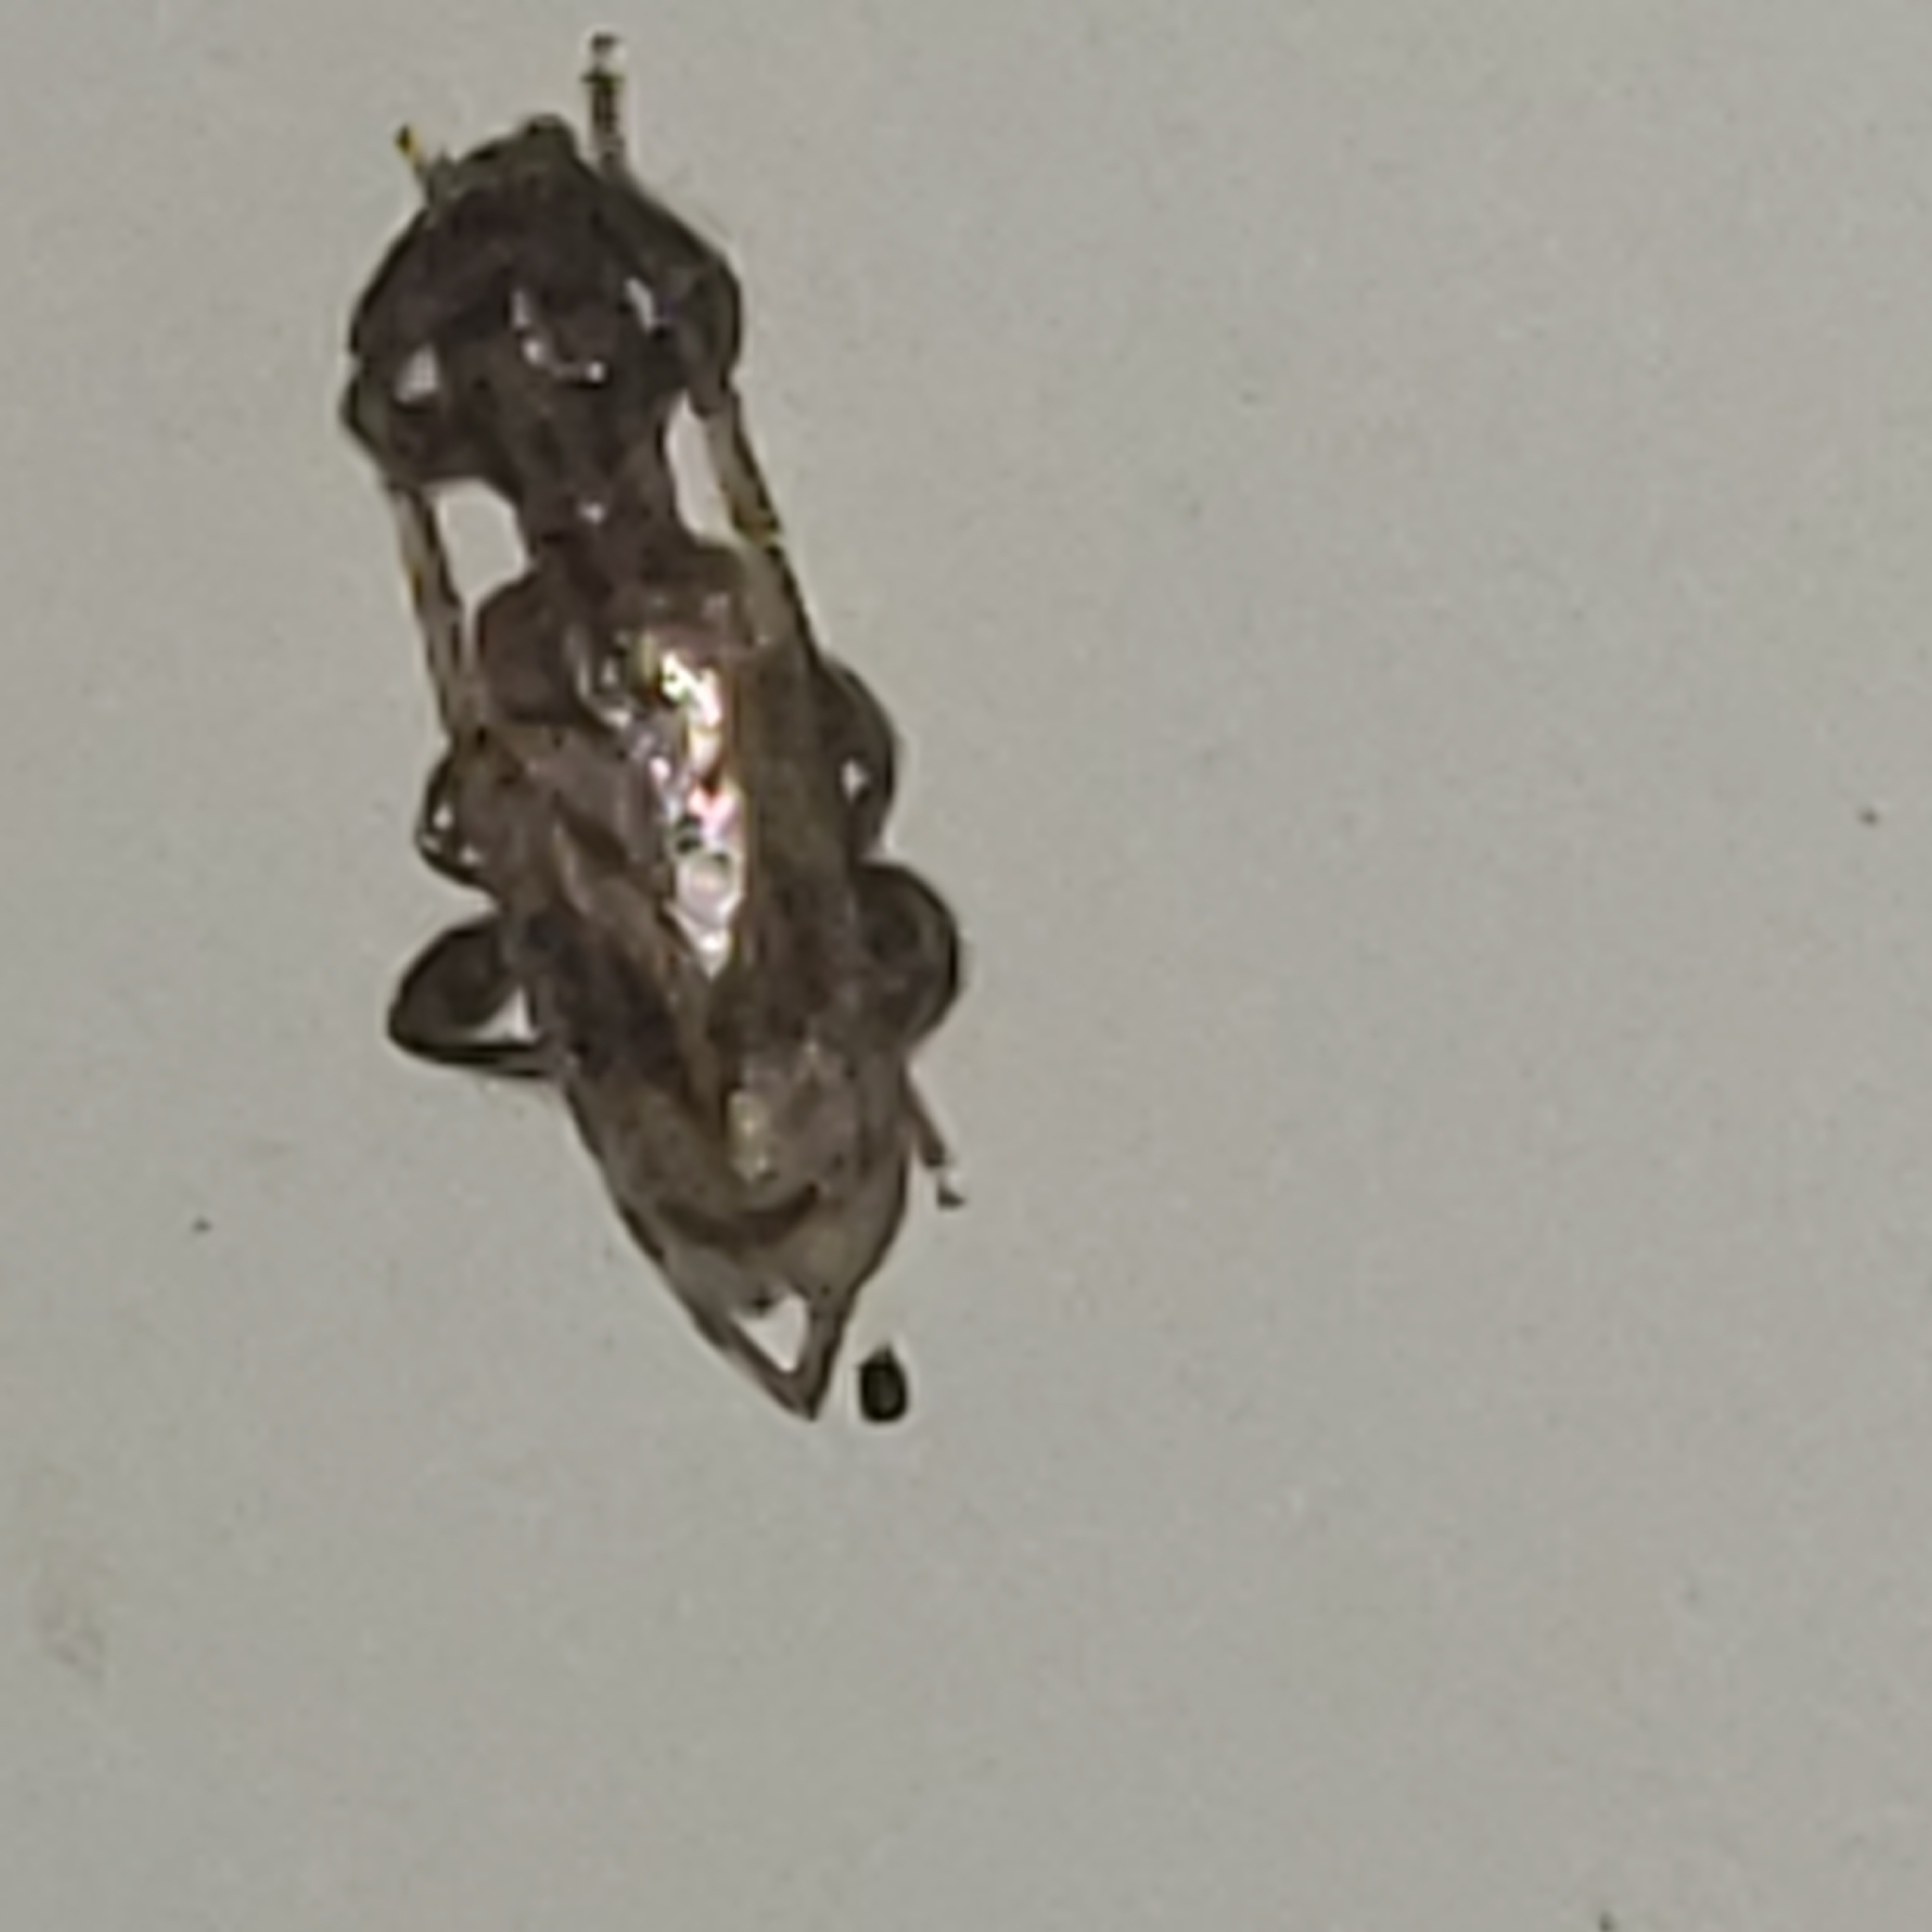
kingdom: Animalia
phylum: Arthropoda
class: Insecta
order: Coleoptera
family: Cerambycidae
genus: Obrium
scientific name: Obrium maculatum
